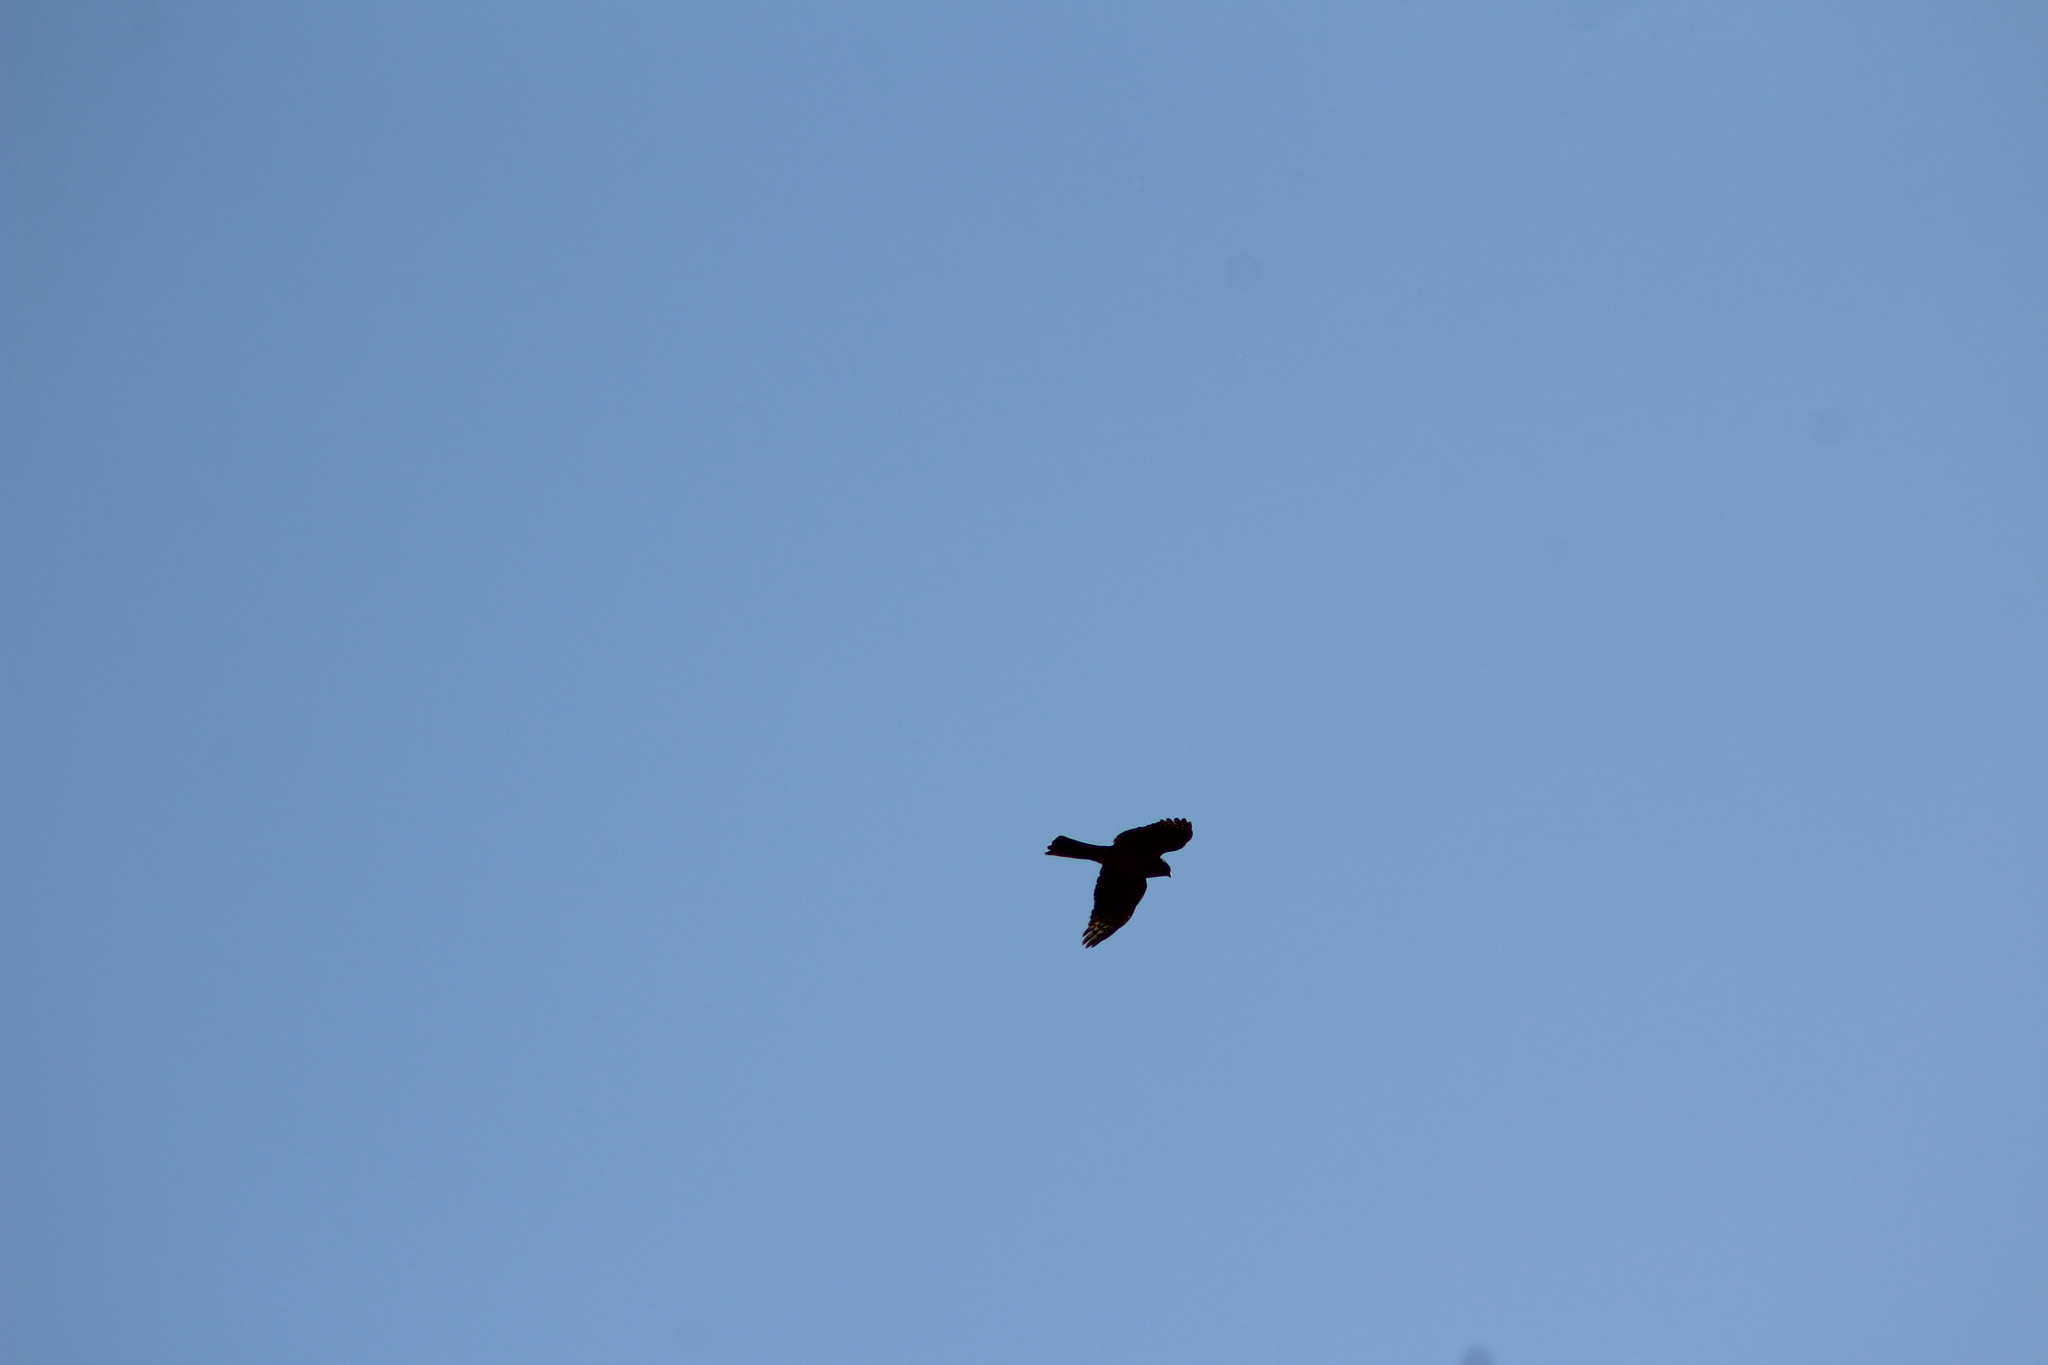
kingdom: Animalia
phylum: Chordata
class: Aves
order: Accipitriformes
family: Accipitridae
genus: Accipiter
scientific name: Accipiter striatus
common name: Sharp-shinned hawk
